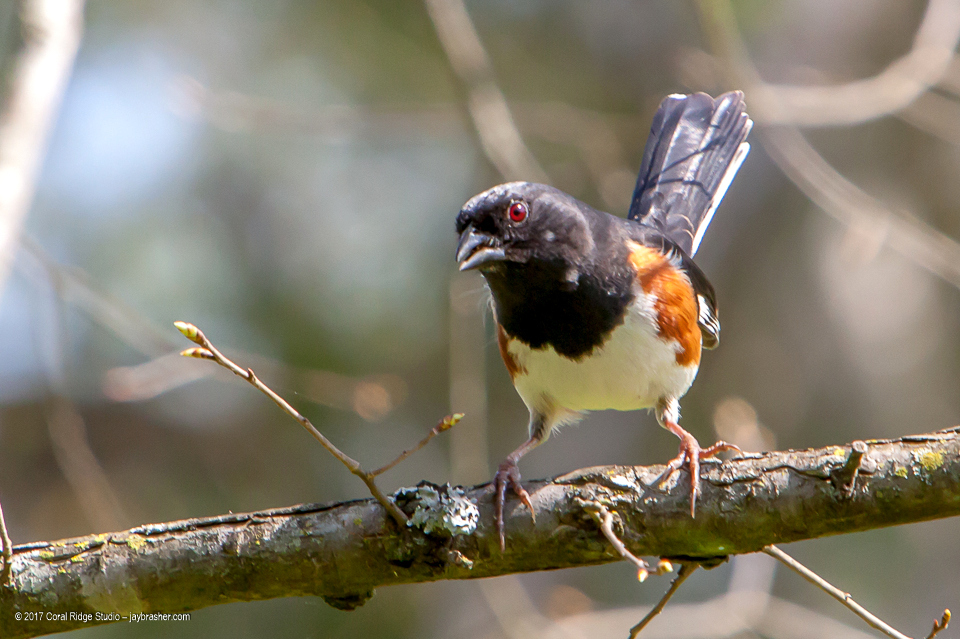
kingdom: Animalia
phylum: Chordata
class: Aves
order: Passeriformes
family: Passerellidae
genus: Pipilo
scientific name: Pipilo erythrophthalmus
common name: Eastern towhee
